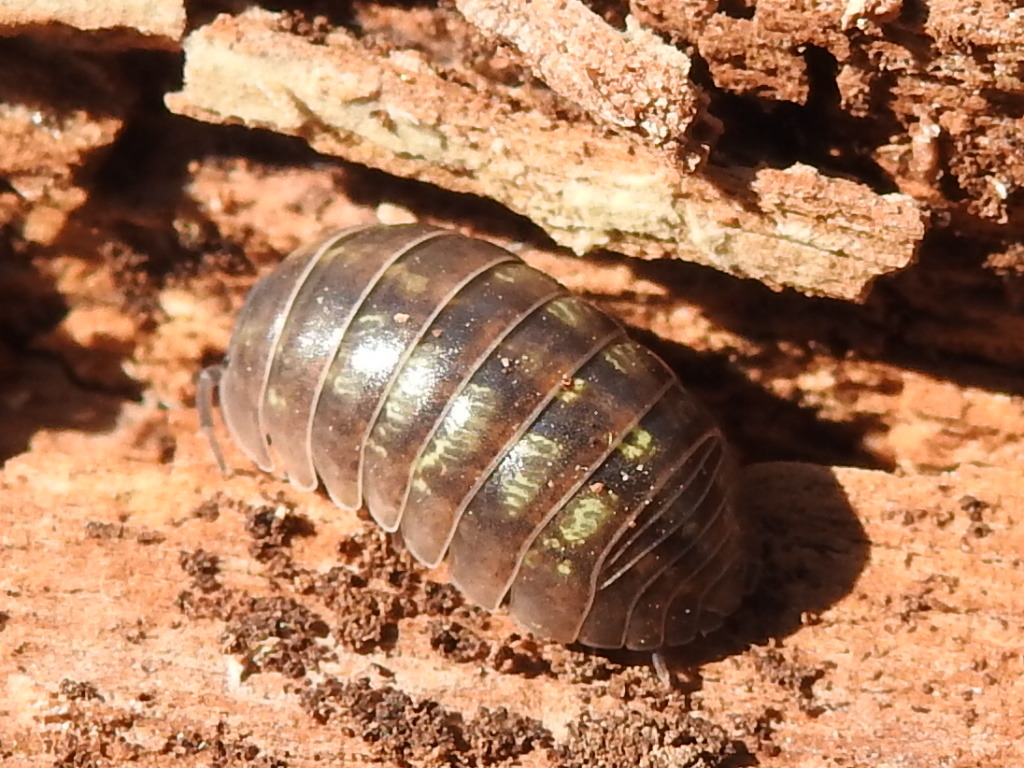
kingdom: Animalia
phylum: Arthropoda
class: Malacostraca
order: Isopoda
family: Armadillidiidae
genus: Armadillidium
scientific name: Armadillidium vulgare
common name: Common pill woodlouse
